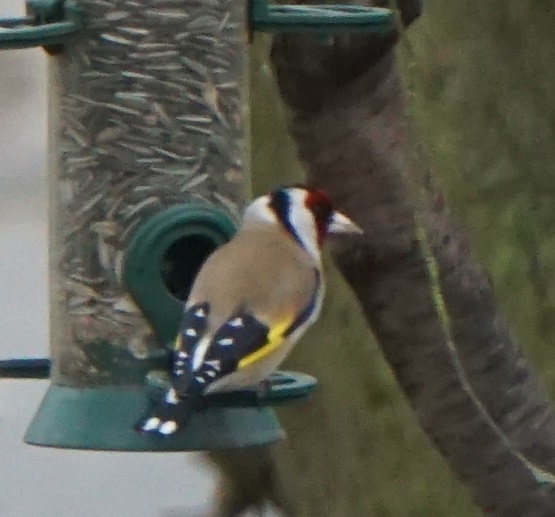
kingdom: Animalia
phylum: Chordata
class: Aves
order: Passeriformes
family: Fringillidae
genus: Carduelis
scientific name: Carduelis carduelis
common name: European goldfinch
